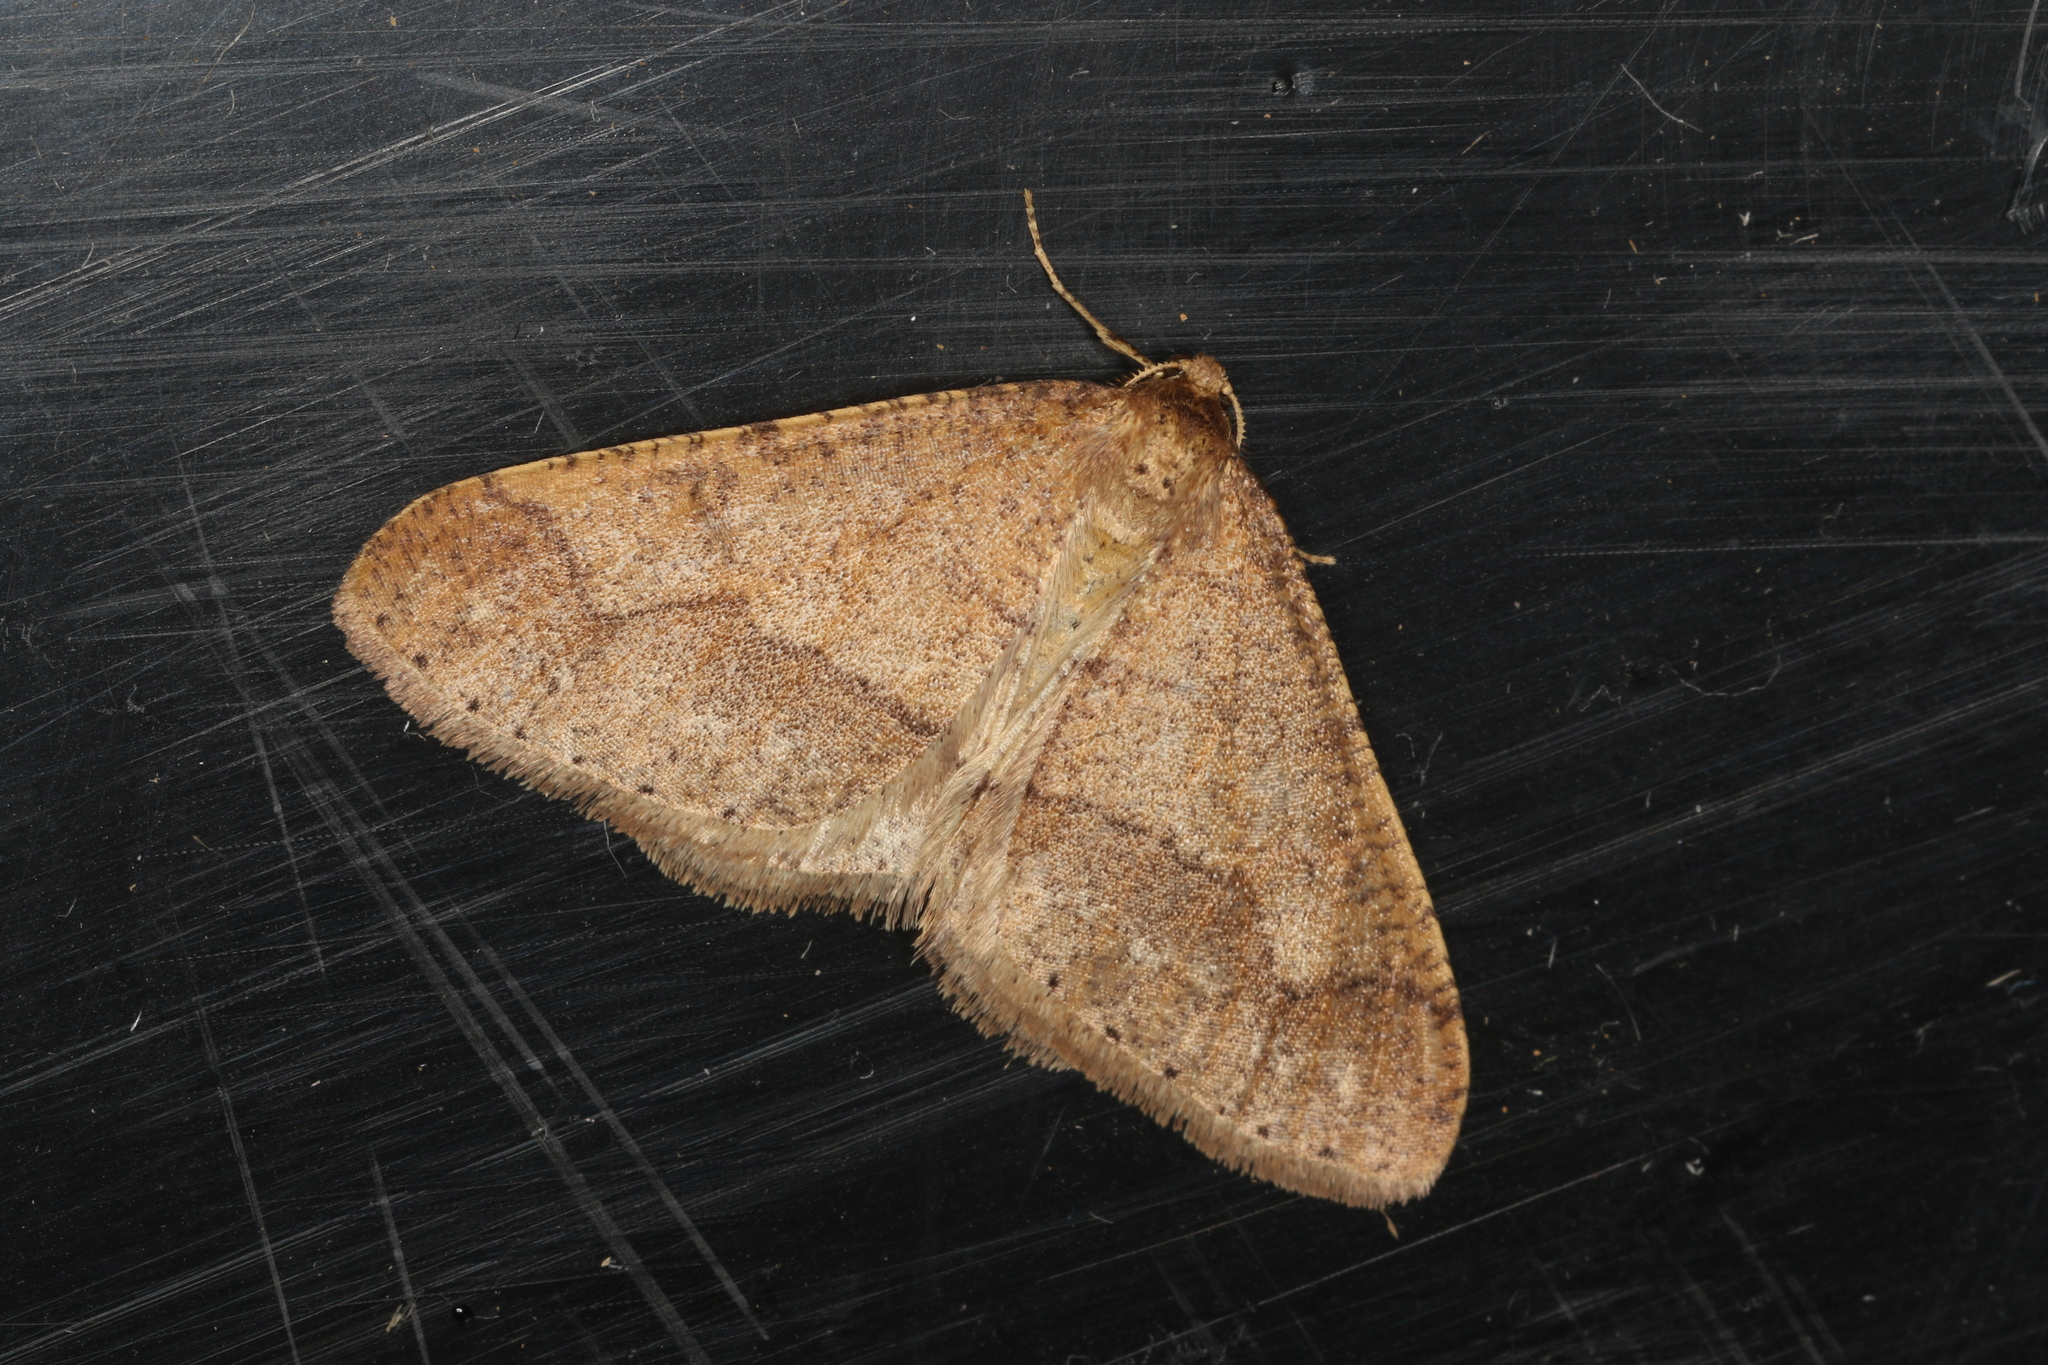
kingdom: Animalia
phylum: Arthropoda
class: Insecta
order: Lepidoptera
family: Geometridae
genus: Agriopis
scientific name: Agriopis marginaria
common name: Dotted border
